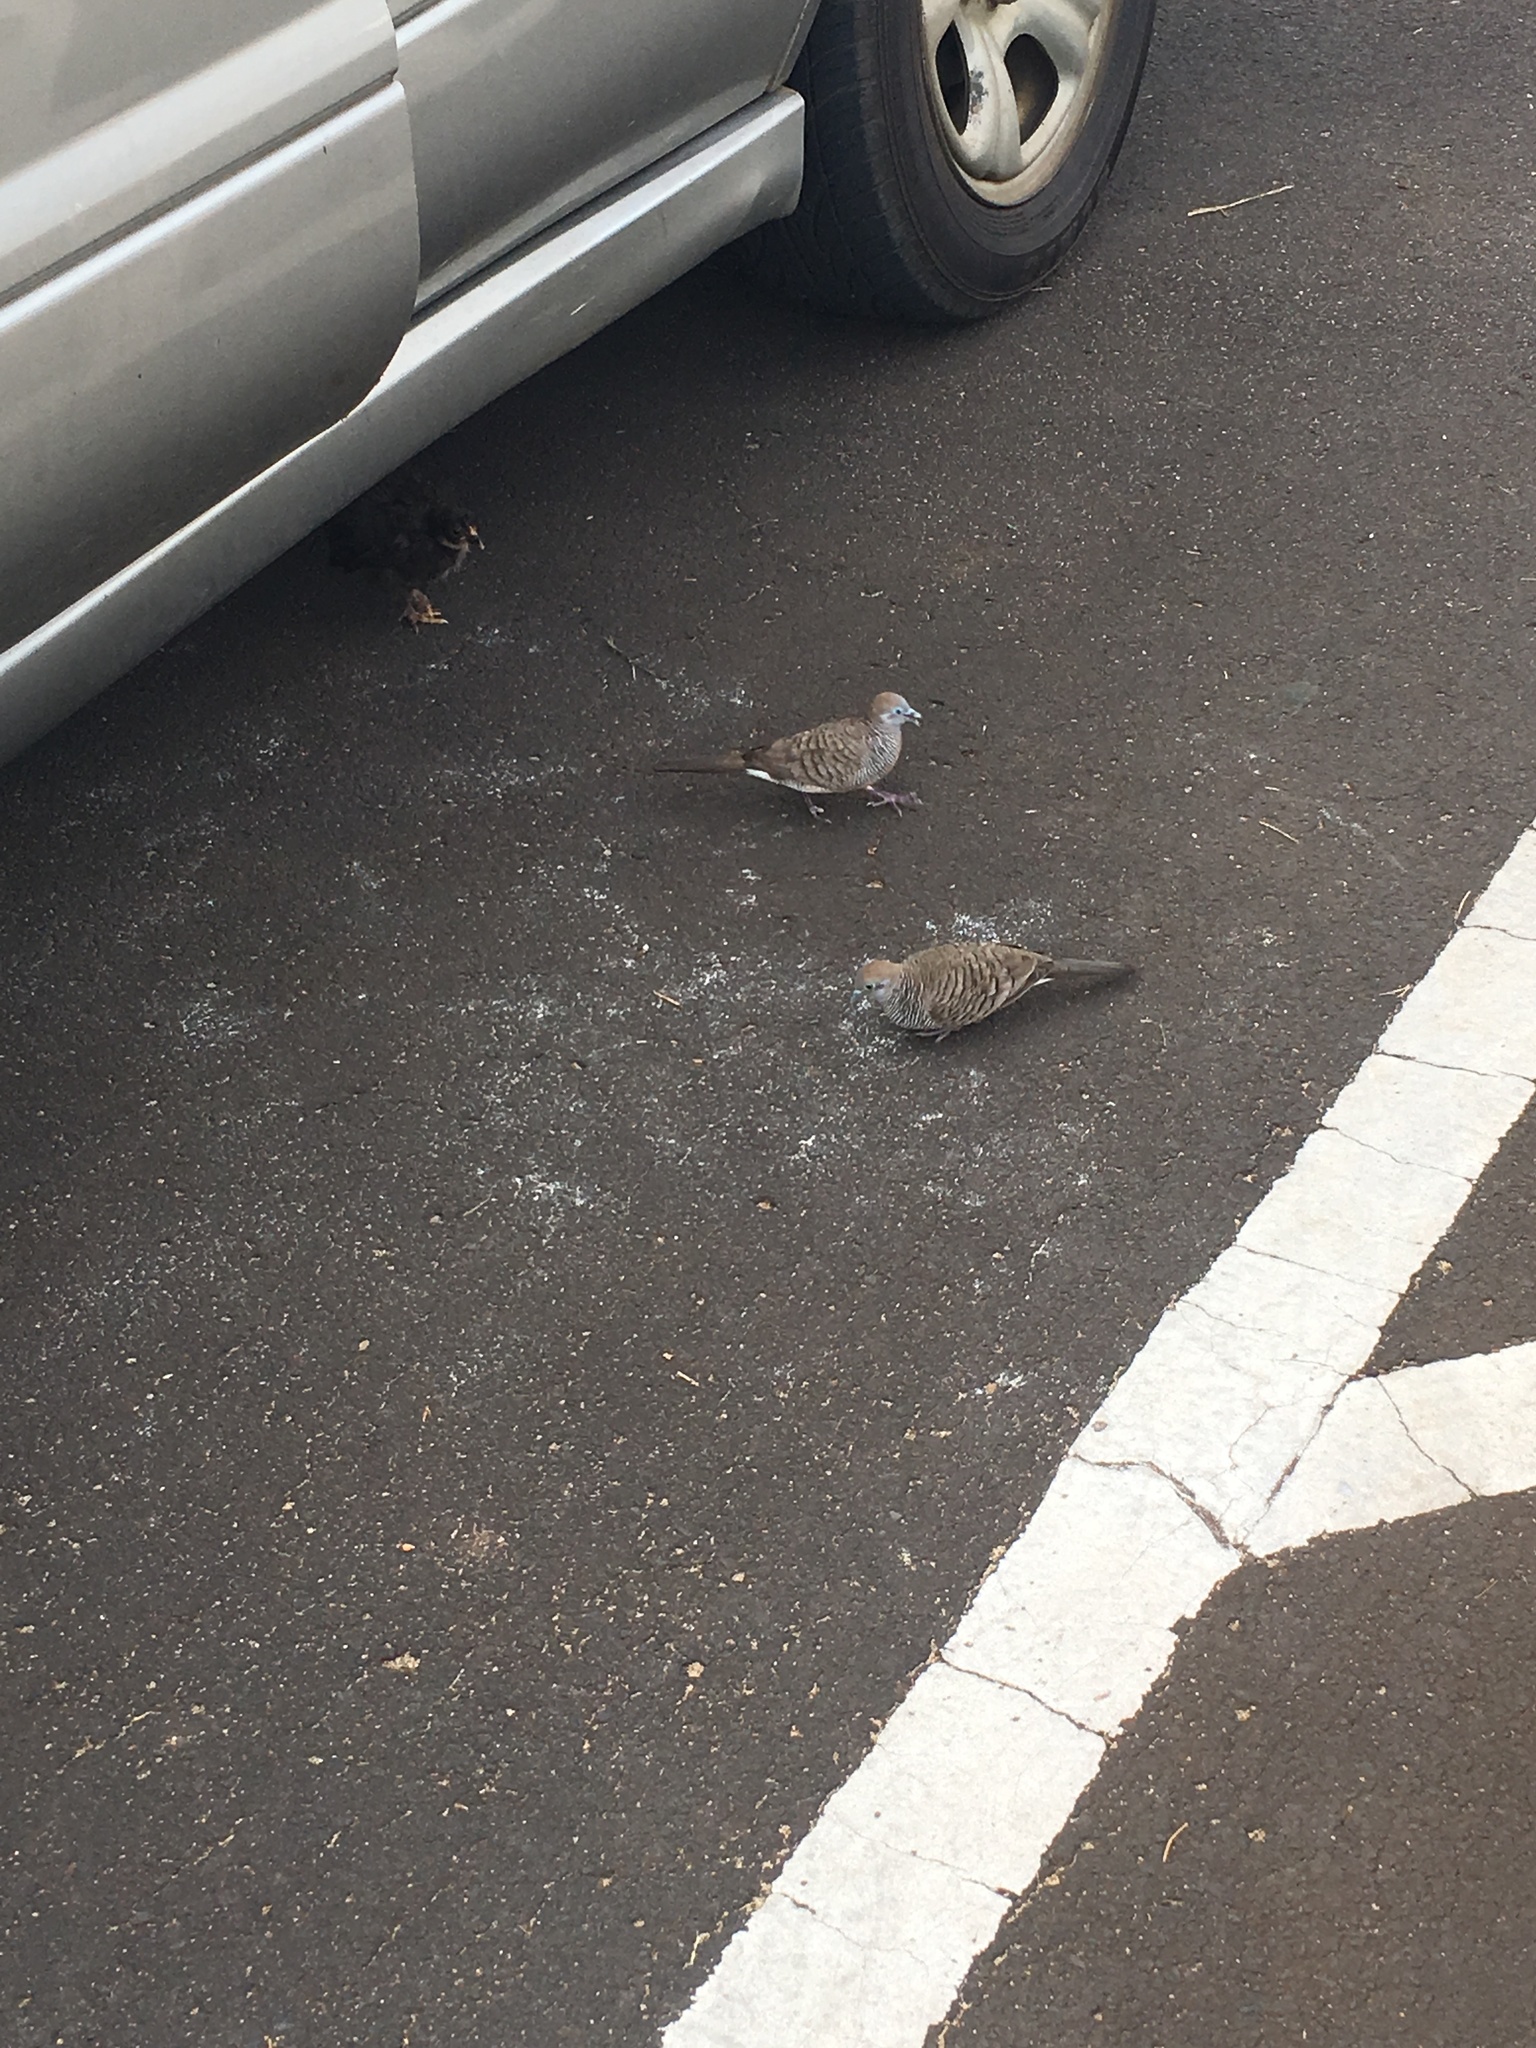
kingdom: Animalia
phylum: Chordata
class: Aves
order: Columbiformes
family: Columbidae
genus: Geopelia
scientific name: Geopelia striata
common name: Zebra dove
